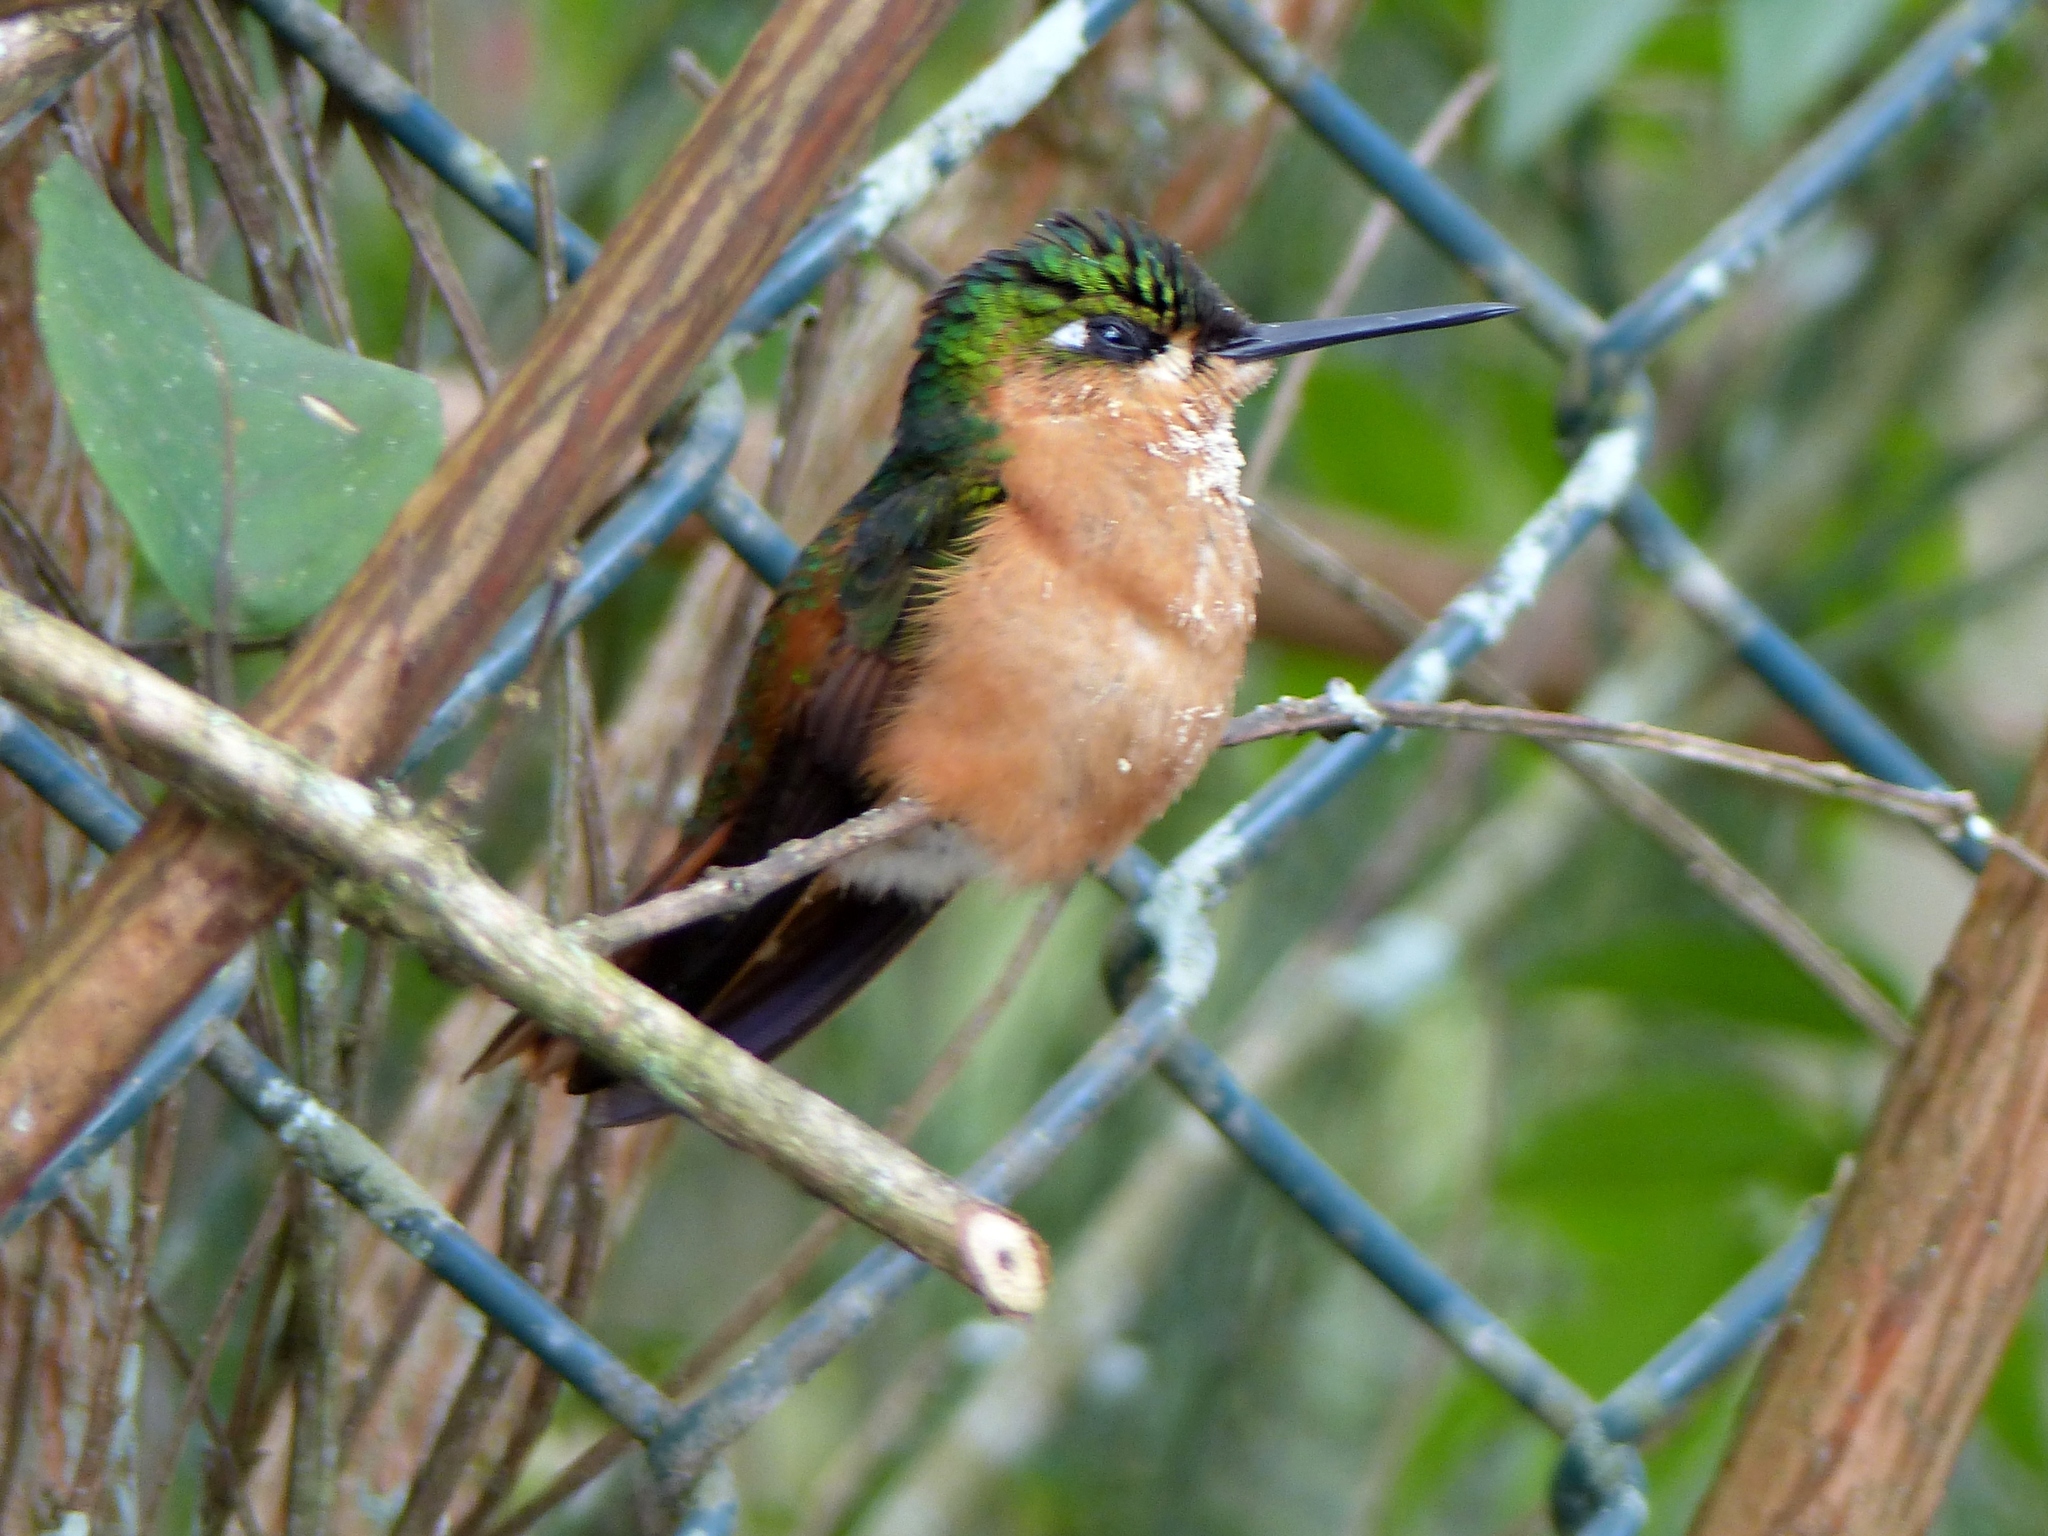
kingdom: Animalia
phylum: Chordata
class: Aves
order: Apodiformes
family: Trochilidae
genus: Clytolaema
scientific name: Clytolaema rubricauda
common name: Brazilian ruby
